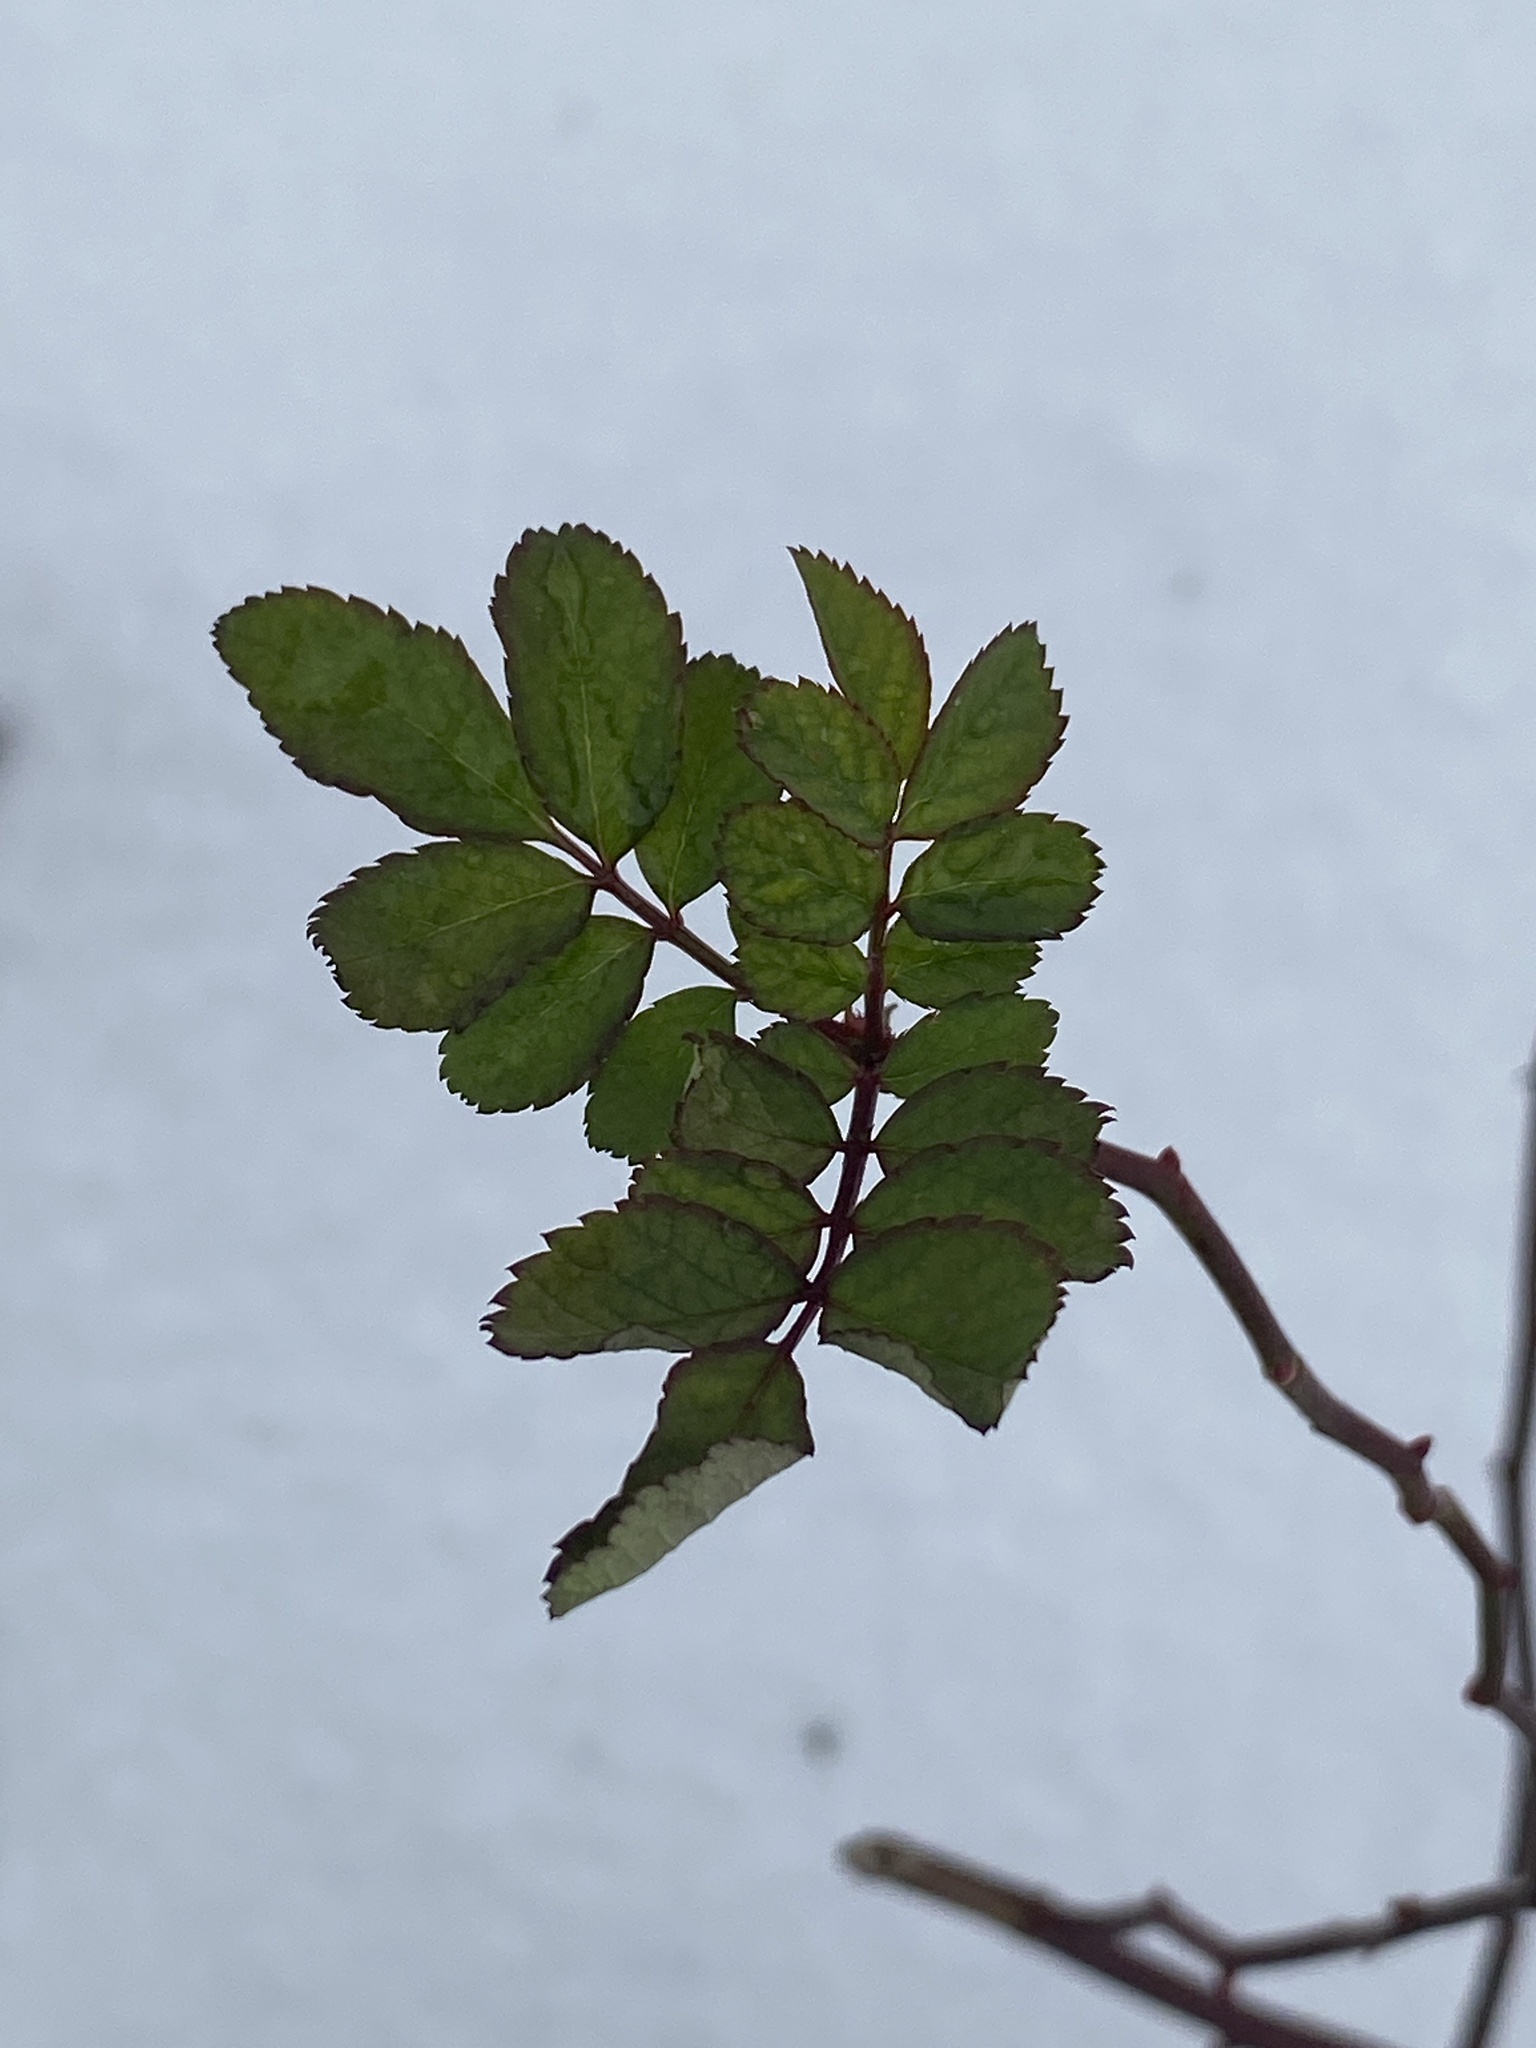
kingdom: Plantae
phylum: Tracheophyta
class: Magnoliopsida
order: Rosales
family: Rosaceae
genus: Rosa
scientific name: Rosa multiflora
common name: Multiflora rose
